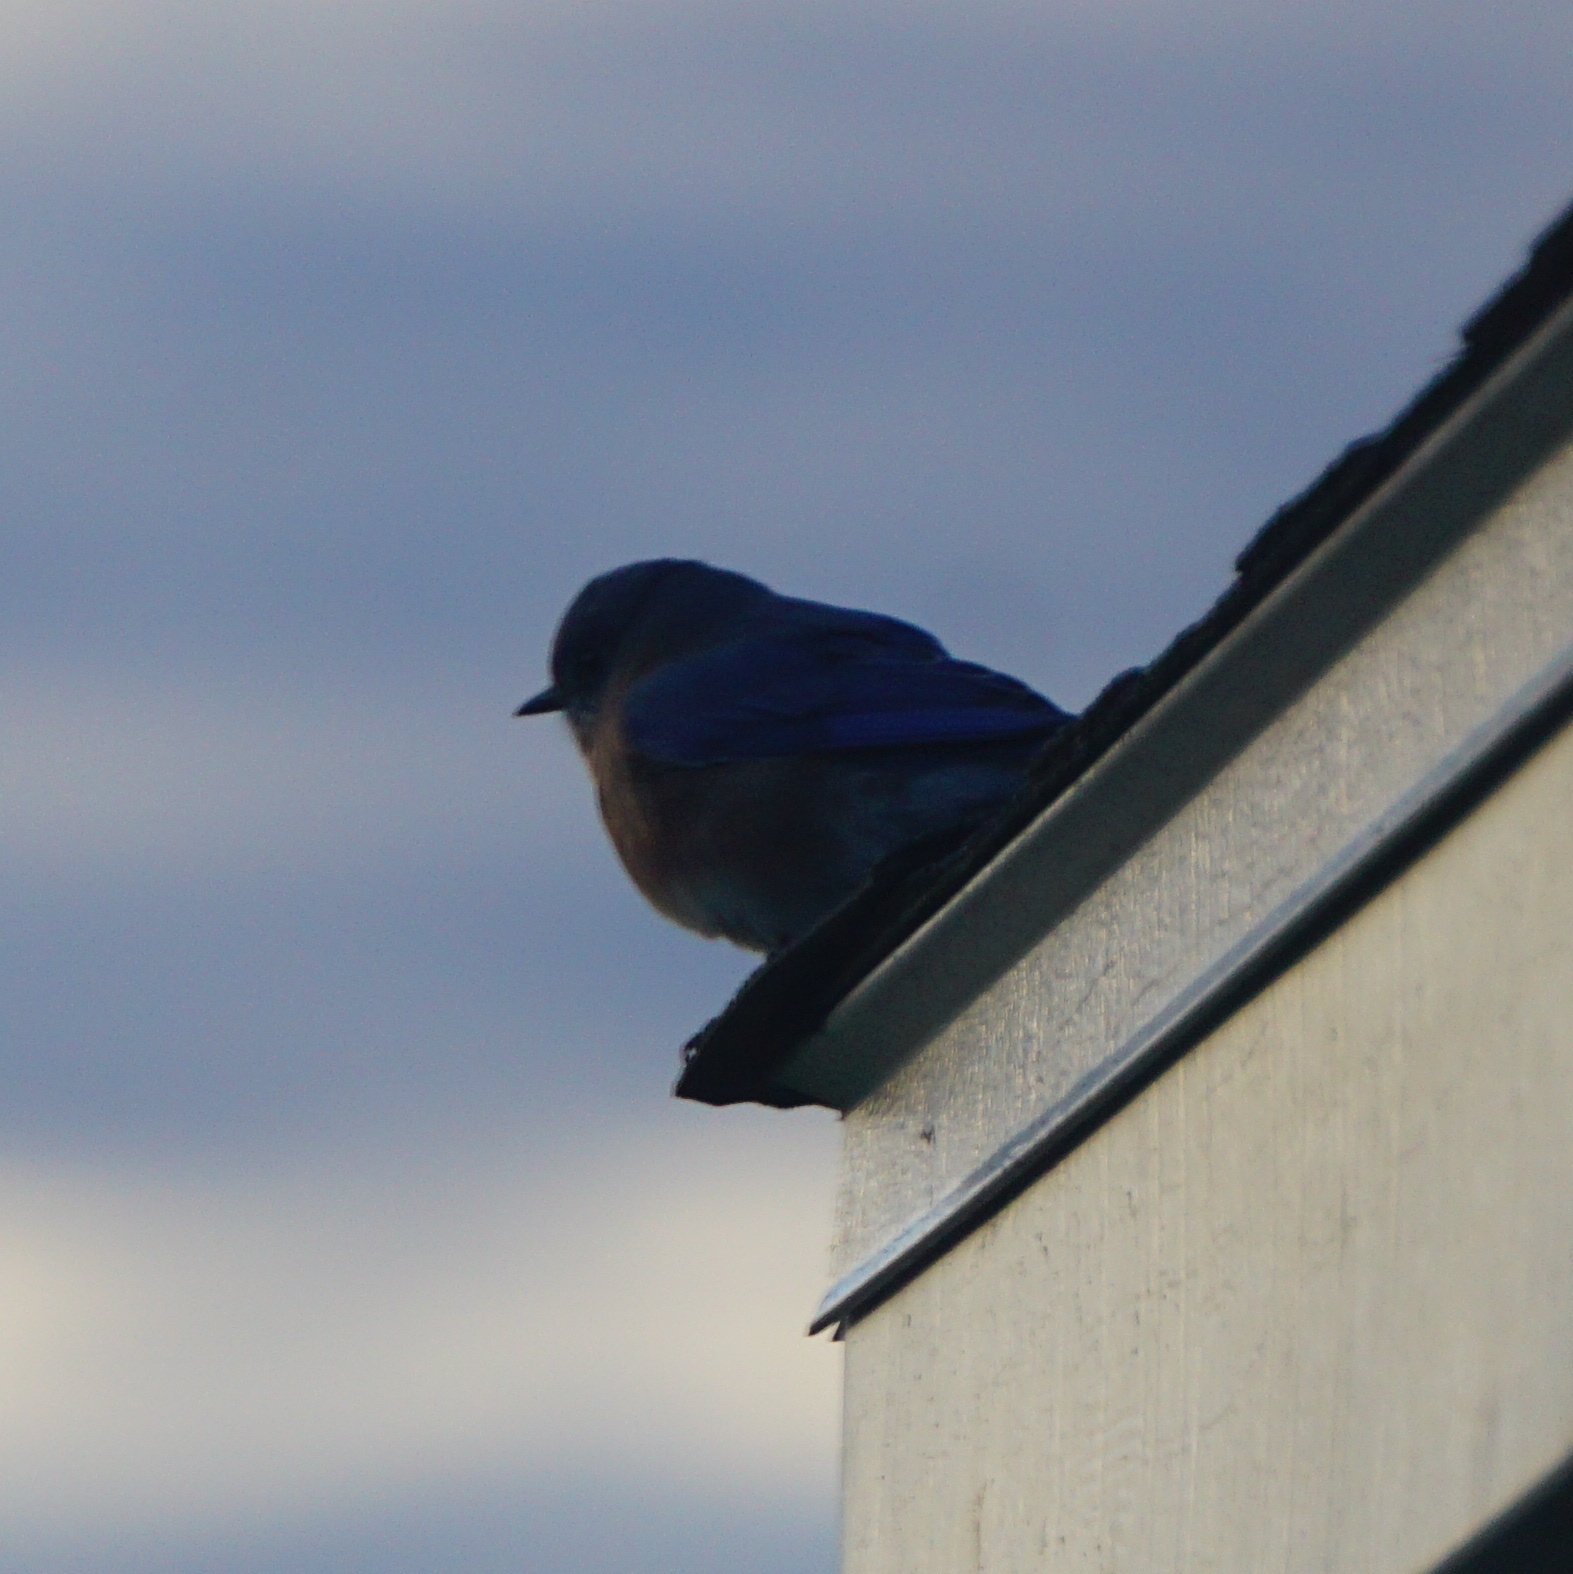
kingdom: Animalia
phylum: Chordata
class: Aves
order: Passeriformes
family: Turdidae
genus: Sialia
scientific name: Sialia sialis
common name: Eastern bluebird
